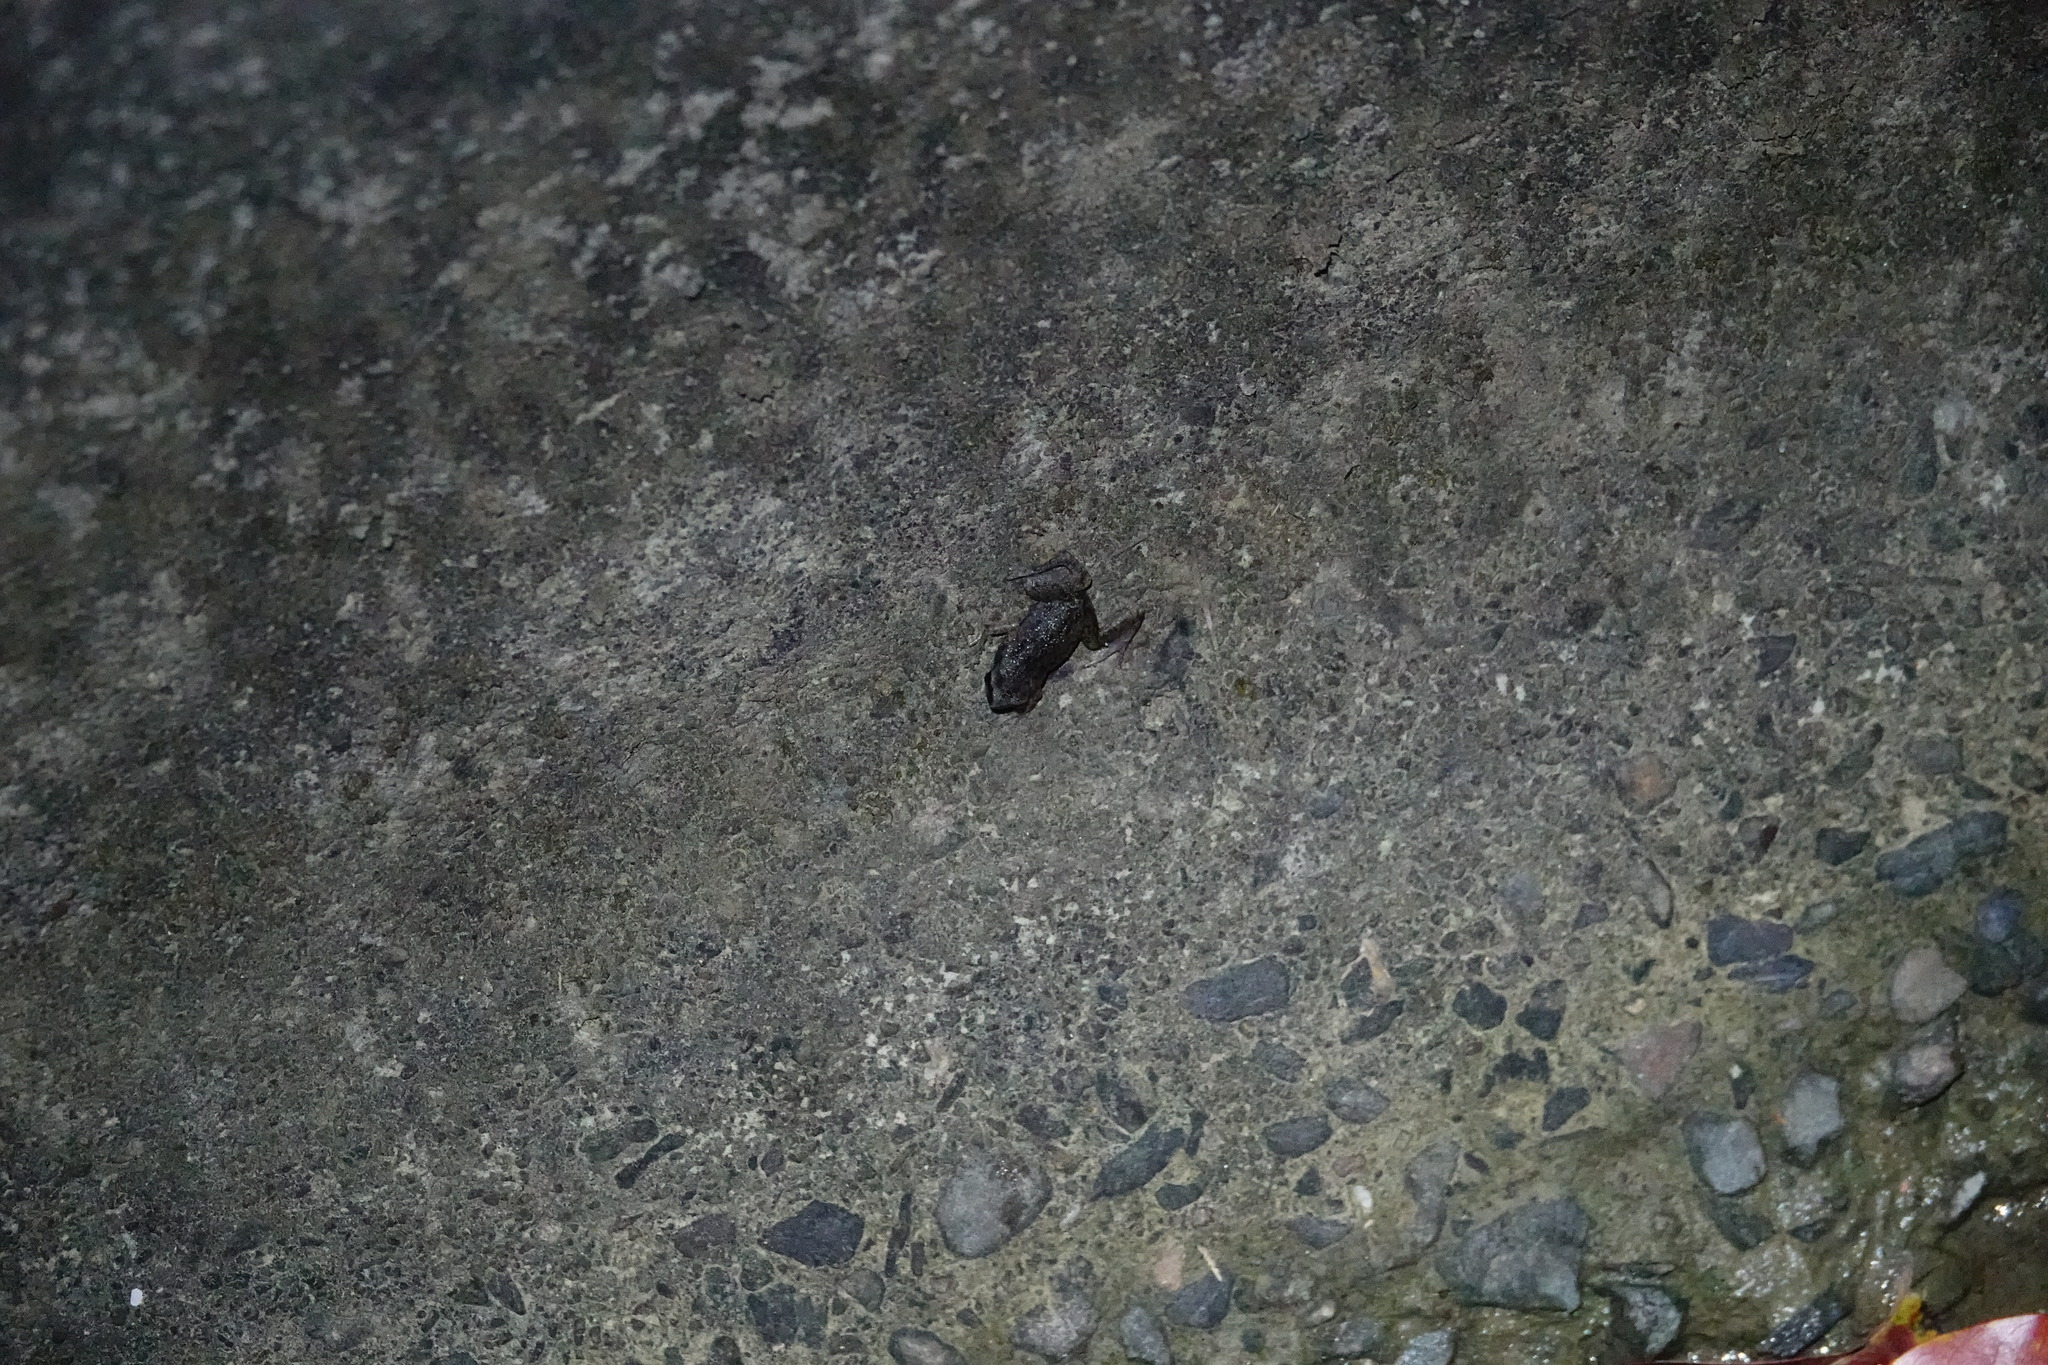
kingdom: Animalia
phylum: Chordata
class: Amphibia
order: Anura
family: Microhylidae
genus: Micryletta
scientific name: Micryletta steinegeri
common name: Stejneger's paddy frog
